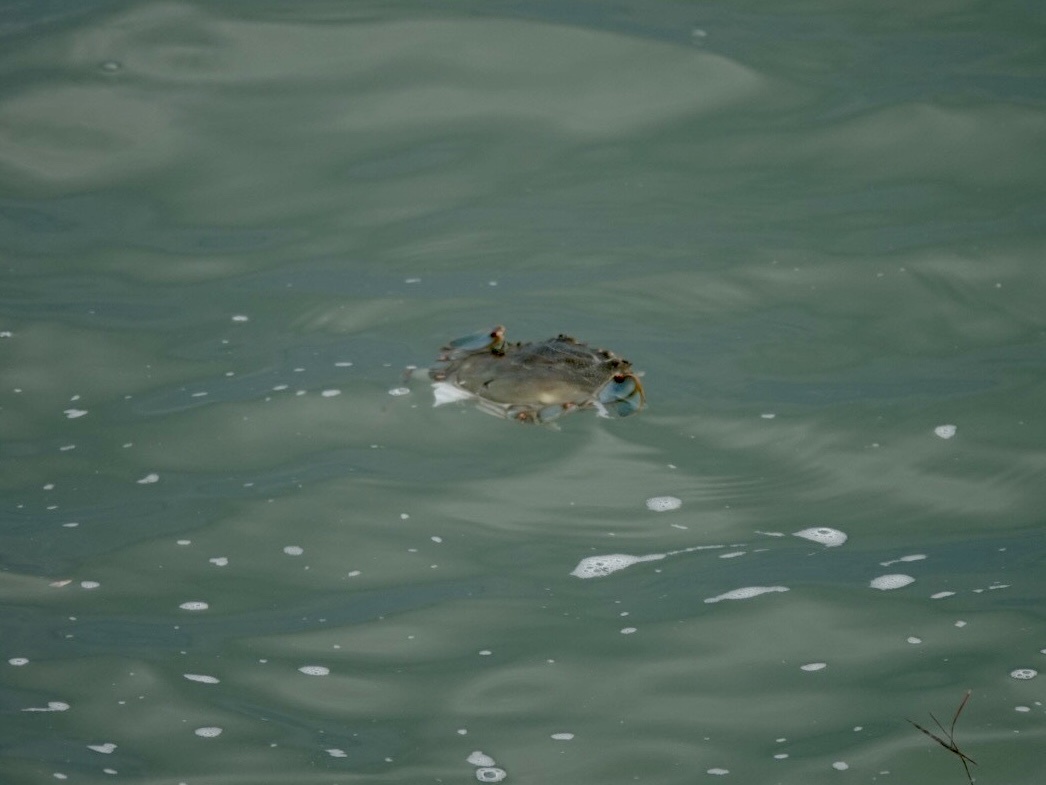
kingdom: Animalia
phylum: Arthropoda
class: Malacostraca
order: Decapoda
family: Portunidae
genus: Callinectes
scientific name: Callinectes sapidus
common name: Blue crab
